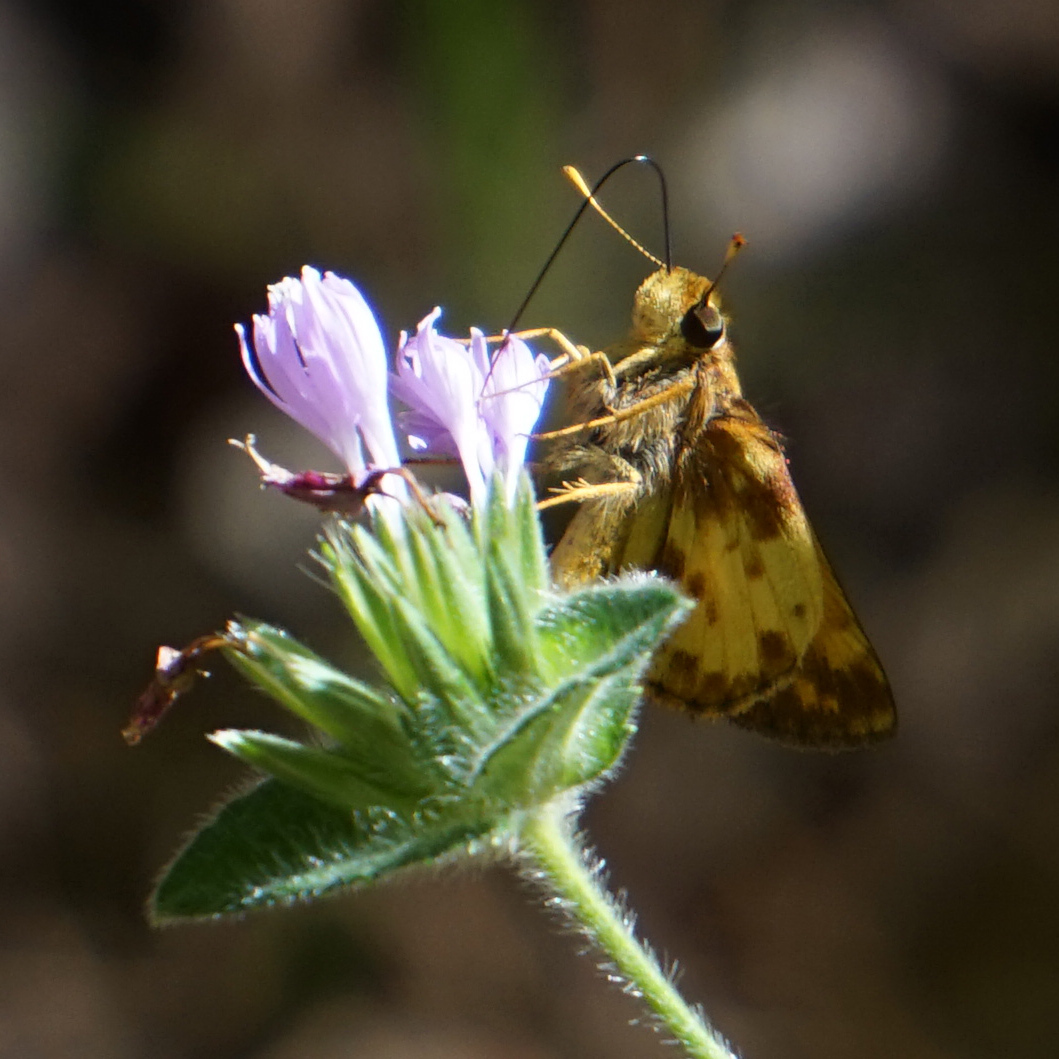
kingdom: Animalia
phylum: Arthropoda
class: Insecta
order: Lepidoptera
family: Hesperiidae
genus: Lon
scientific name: Lon zabulon
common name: Zabulon skipper
